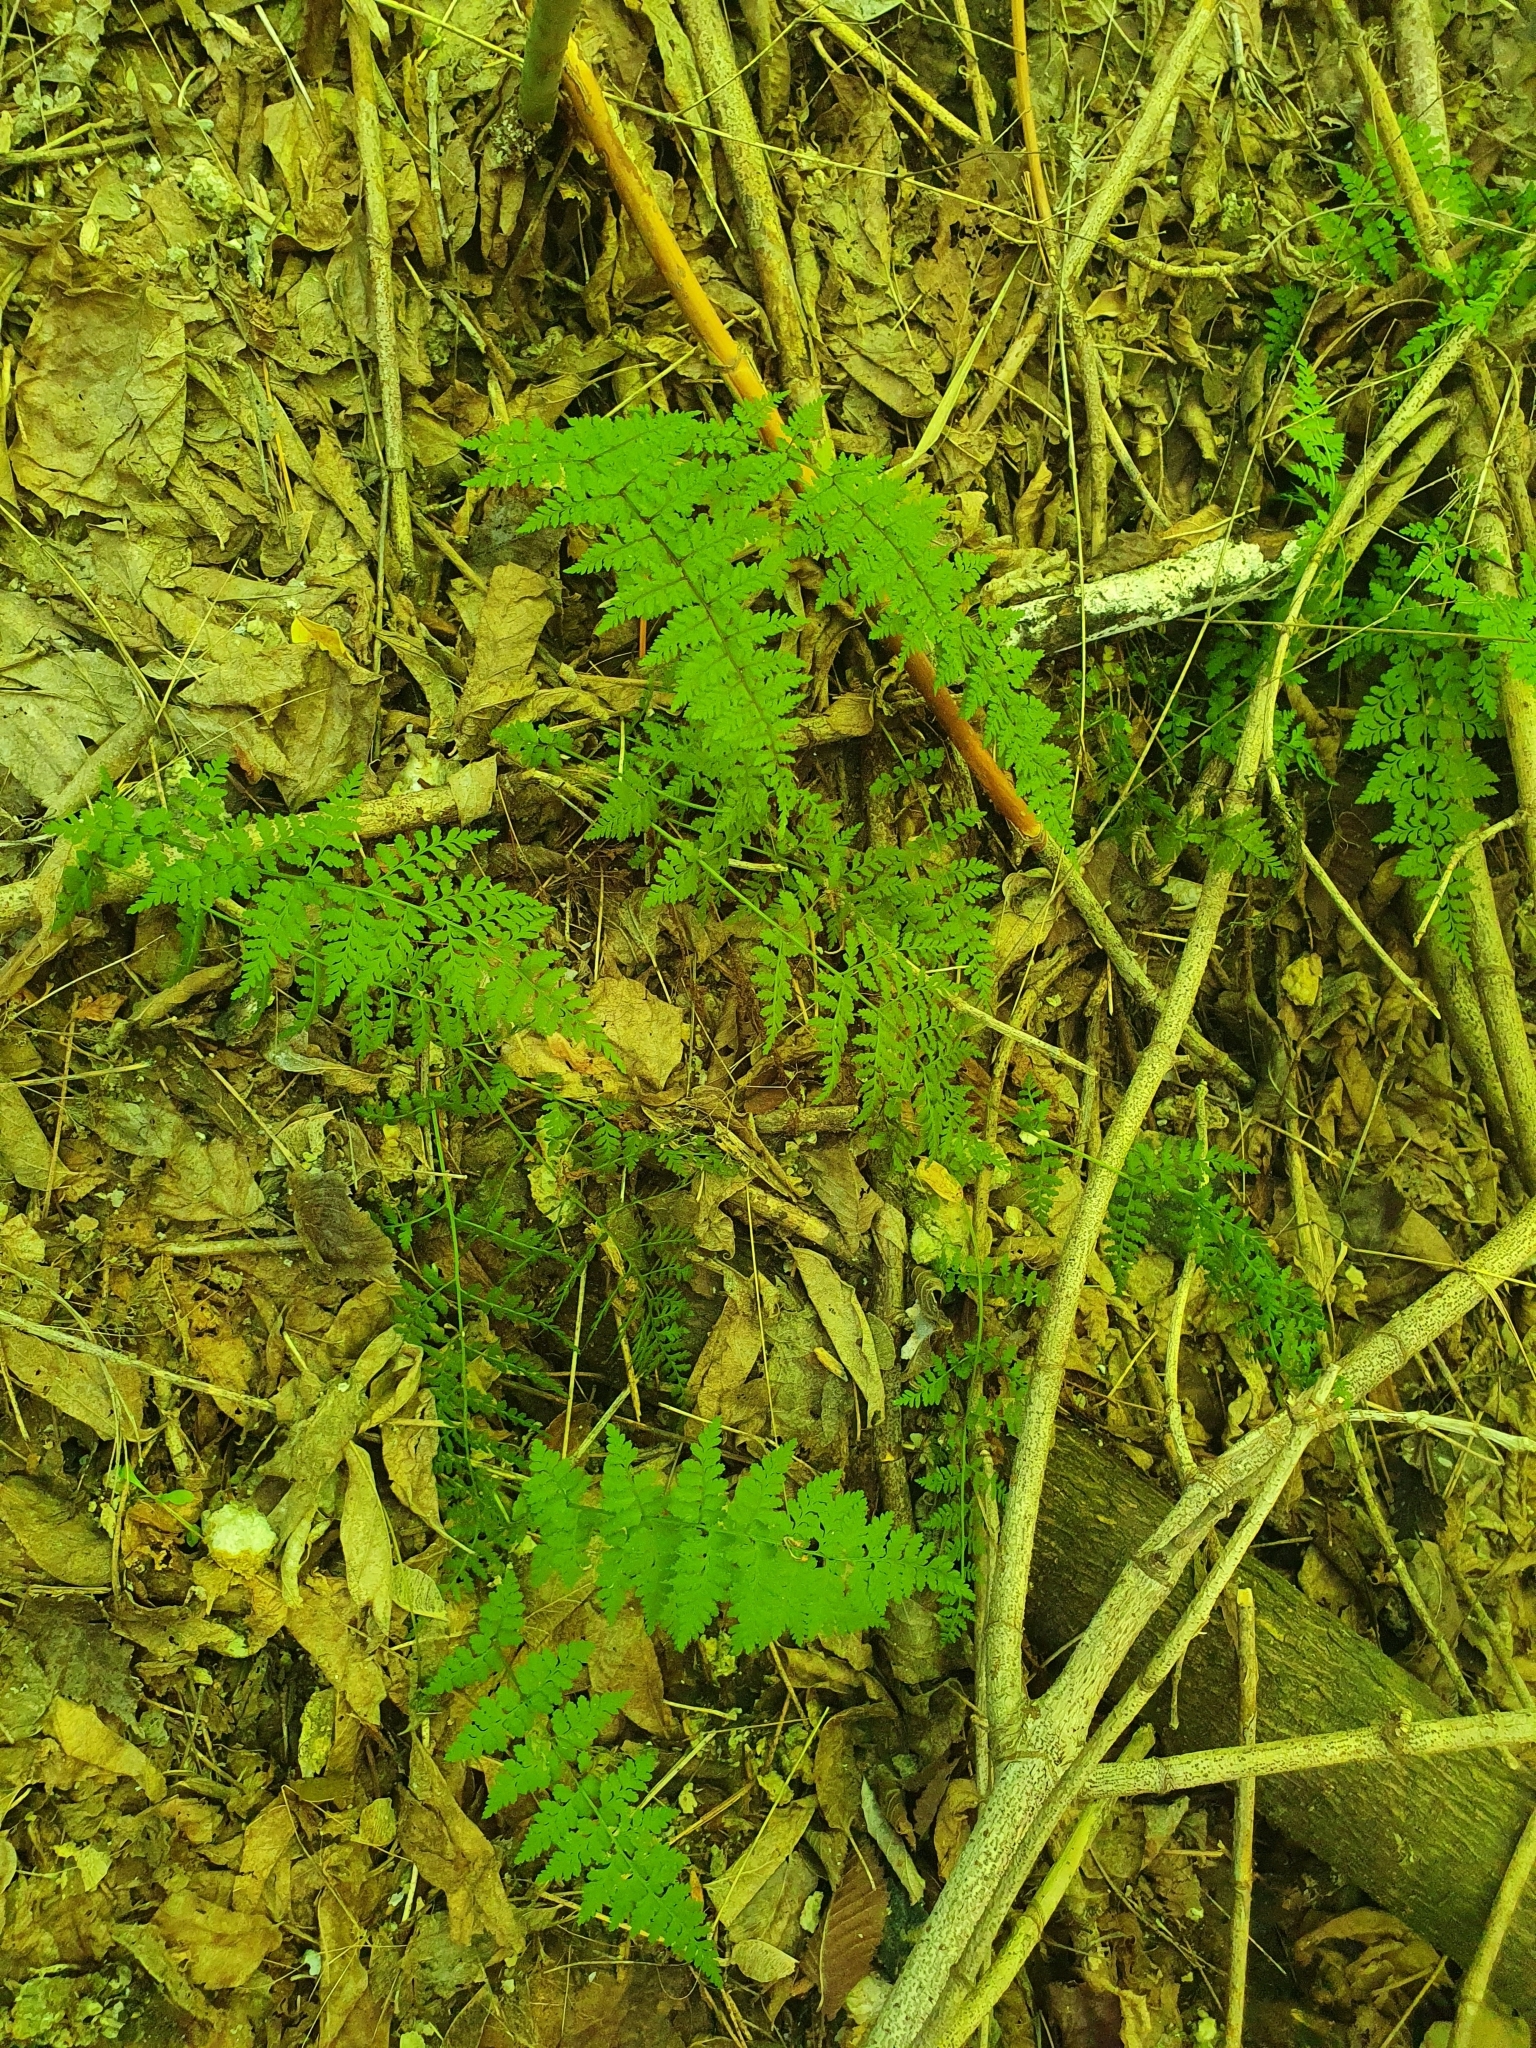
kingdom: Plantae
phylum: Tracheophyta
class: Polypodiopsida
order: Polypodiales
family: Cystopteridaceae
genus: Cystopteris
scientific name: Cystopteris fragilis
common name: Brittle bladder fern
